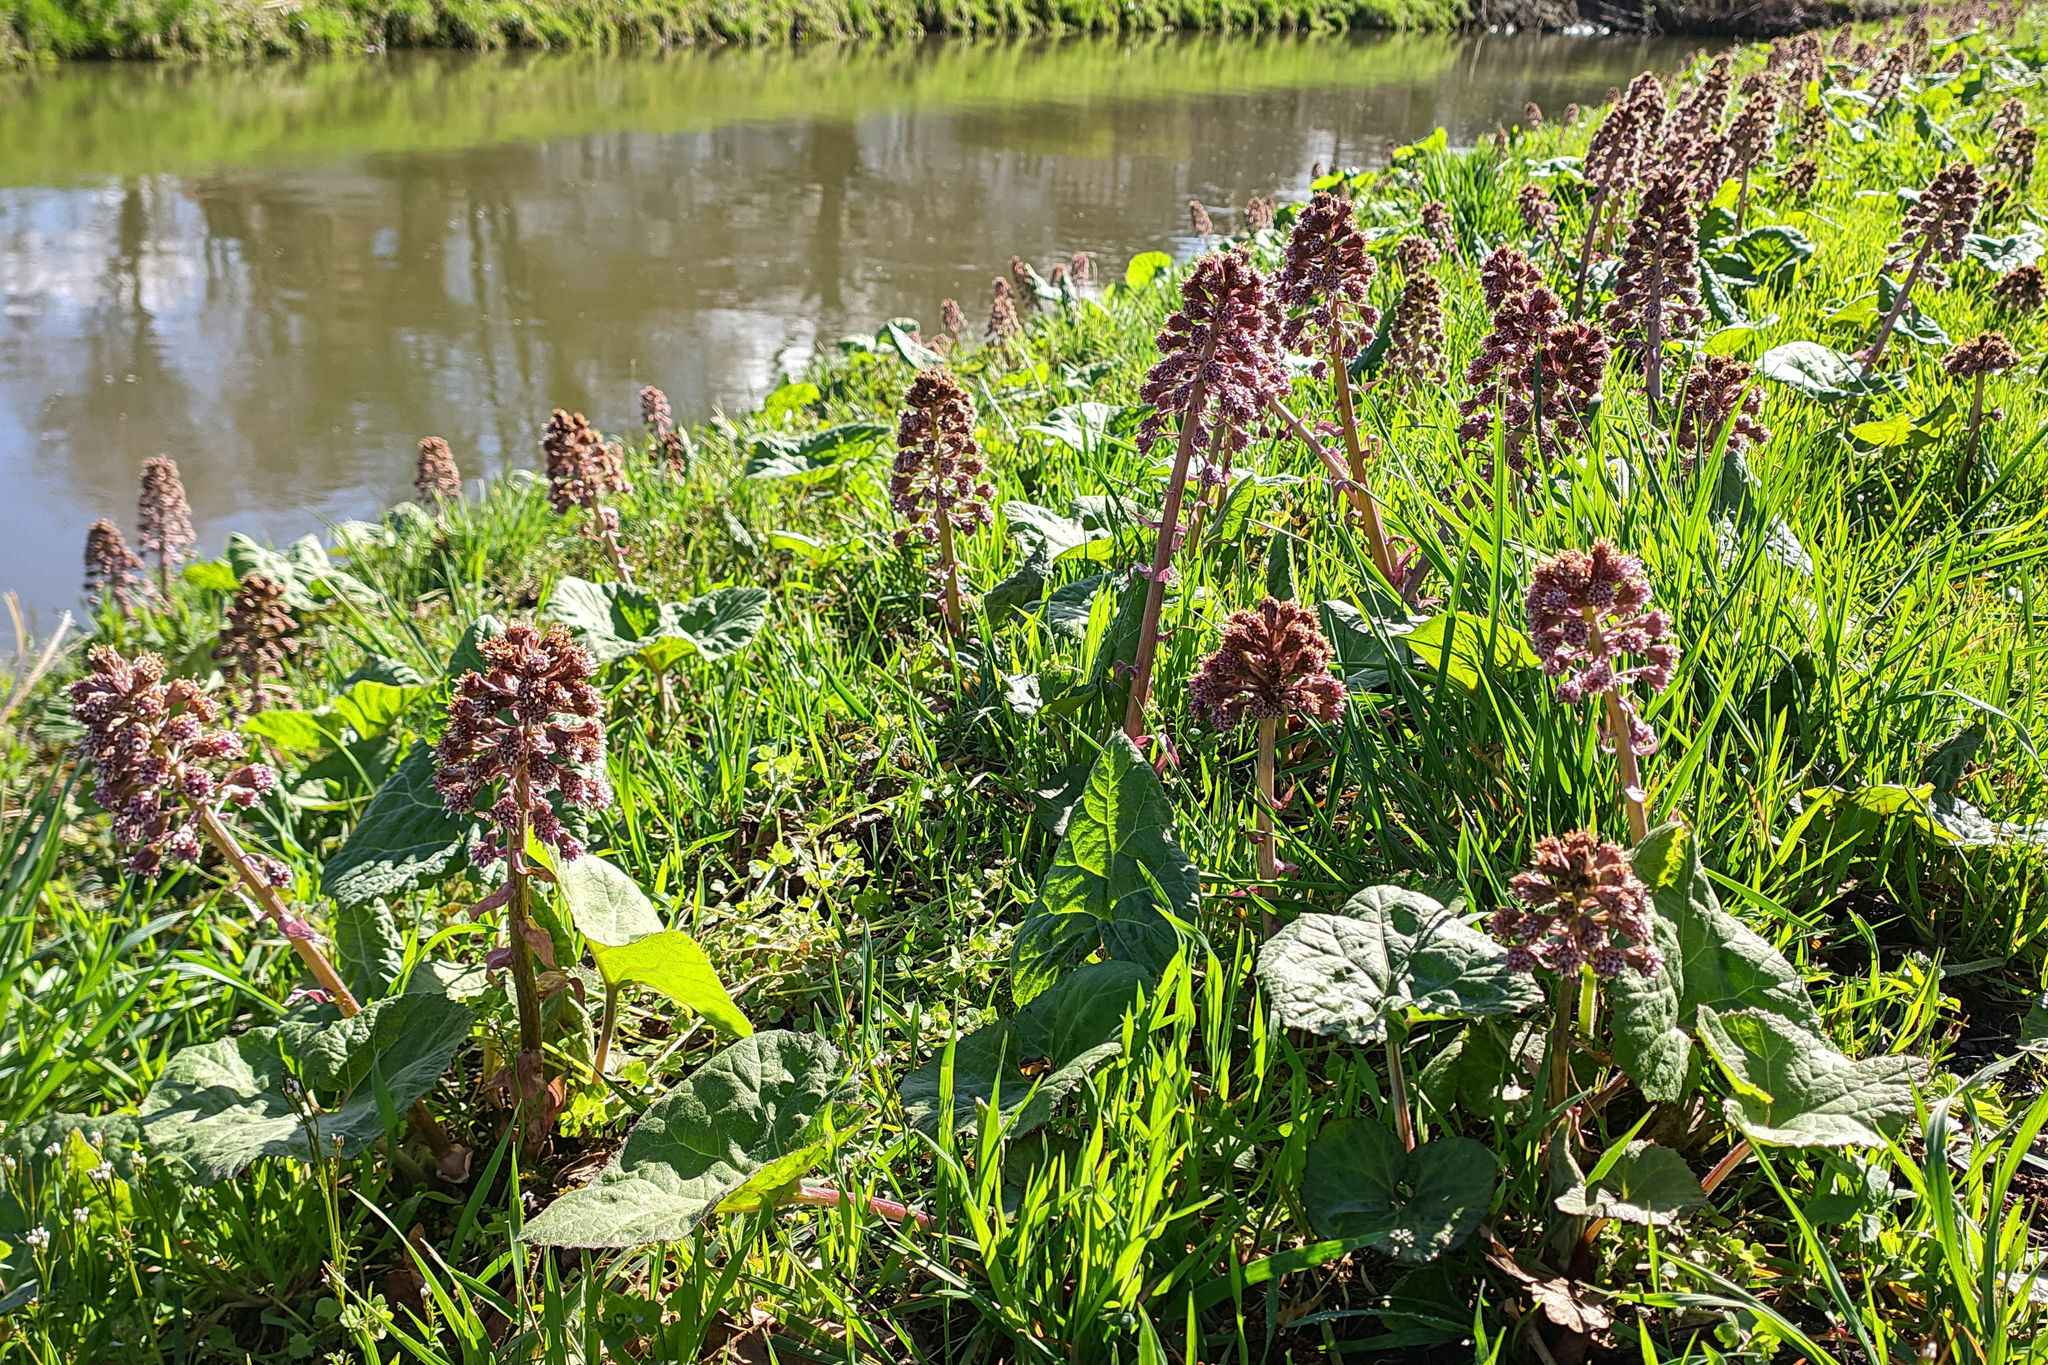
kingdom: Plantae
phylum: Tracheophyta
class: Magnoliopsida
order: Asterales
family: Asteraceae
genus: Petasites
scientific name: Petasites hybridus
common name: Butterbur
